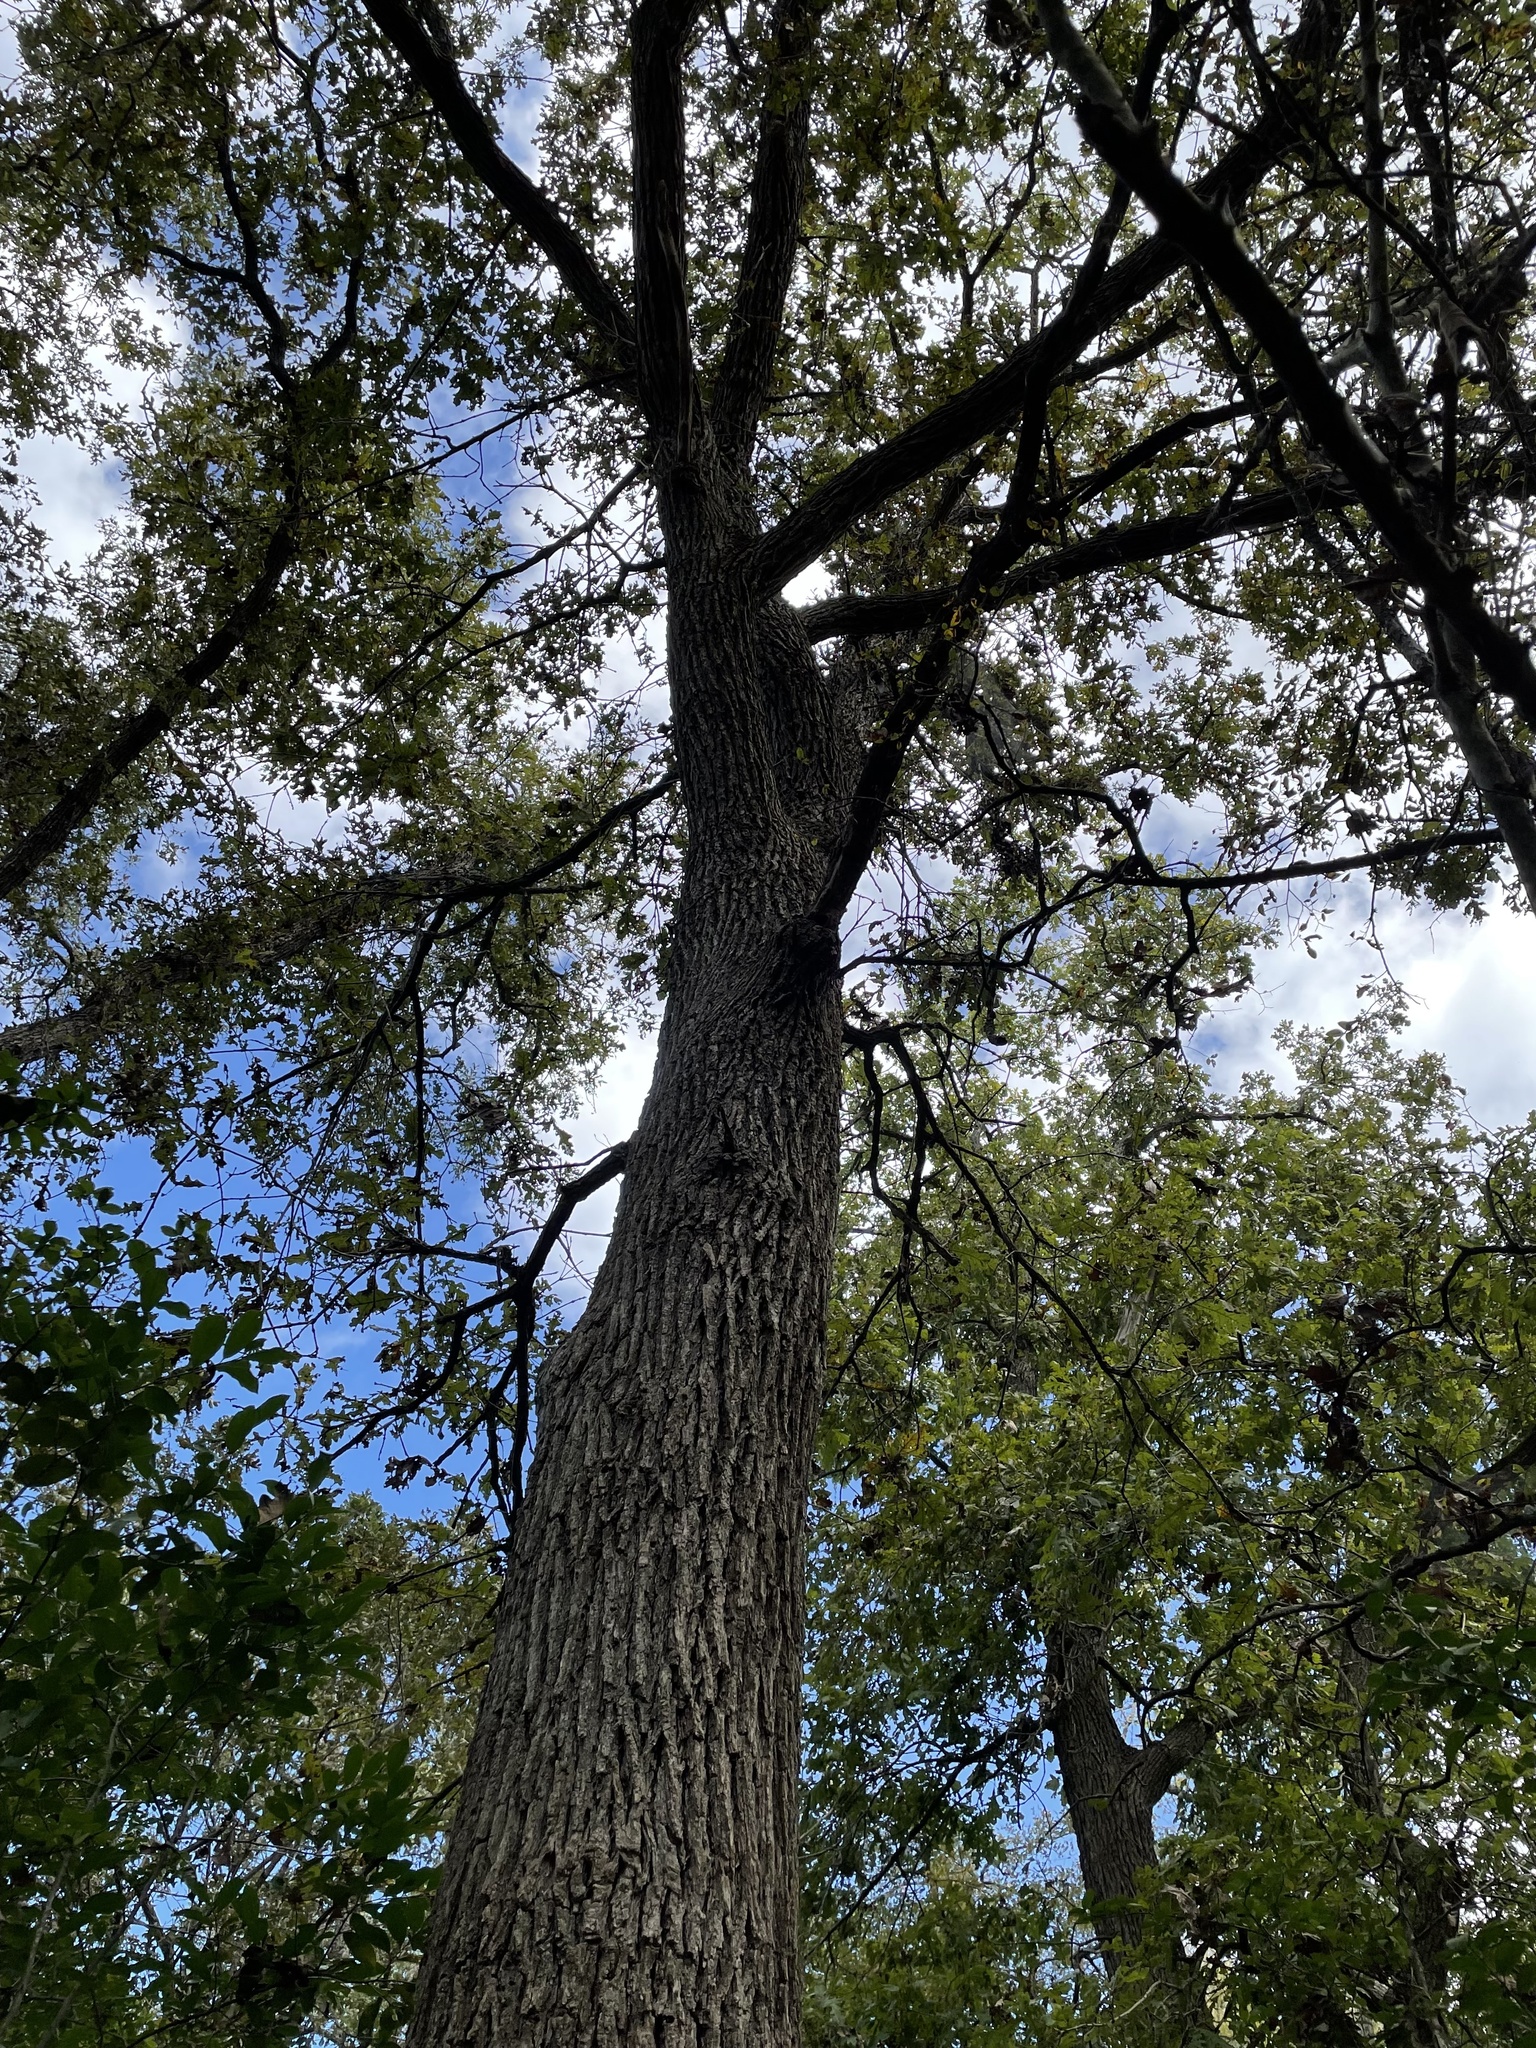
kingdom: Plantae
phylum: Tracheophyta
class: Magnoliopsida
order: Fagales
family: Fagaceae
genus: Quercus
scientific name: Quercus macrocarpa
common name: Bur oak
